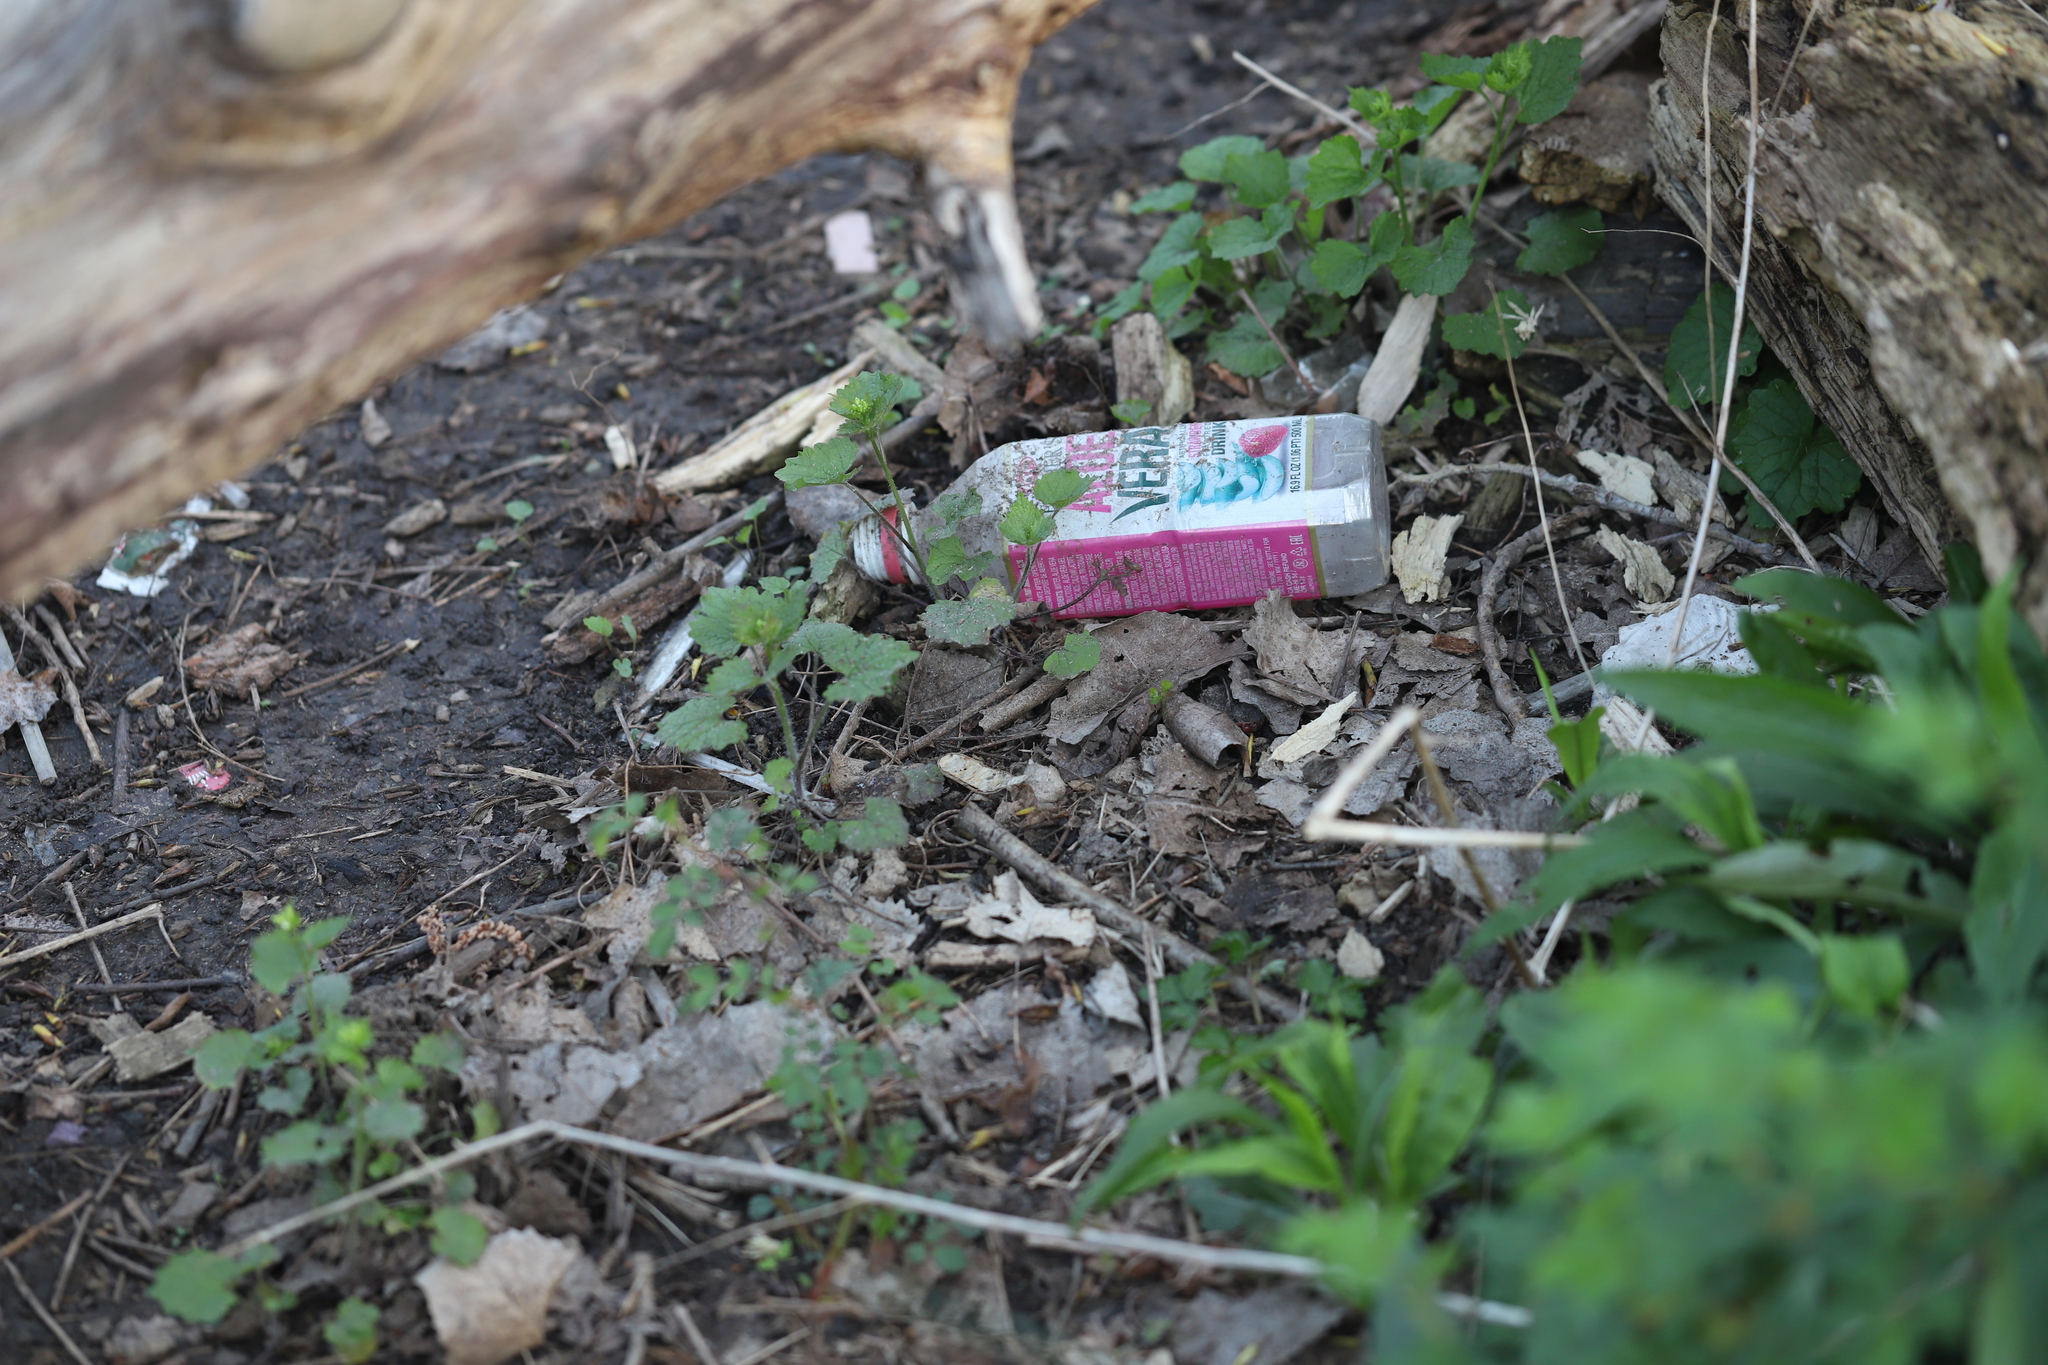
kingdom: Plantae
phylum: Tracheophyta
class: Magnoliopsida
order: Brassicales
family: Brassicaceae
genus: Alliaria
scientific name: Alliaria petiolata
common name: Garlic mustard
